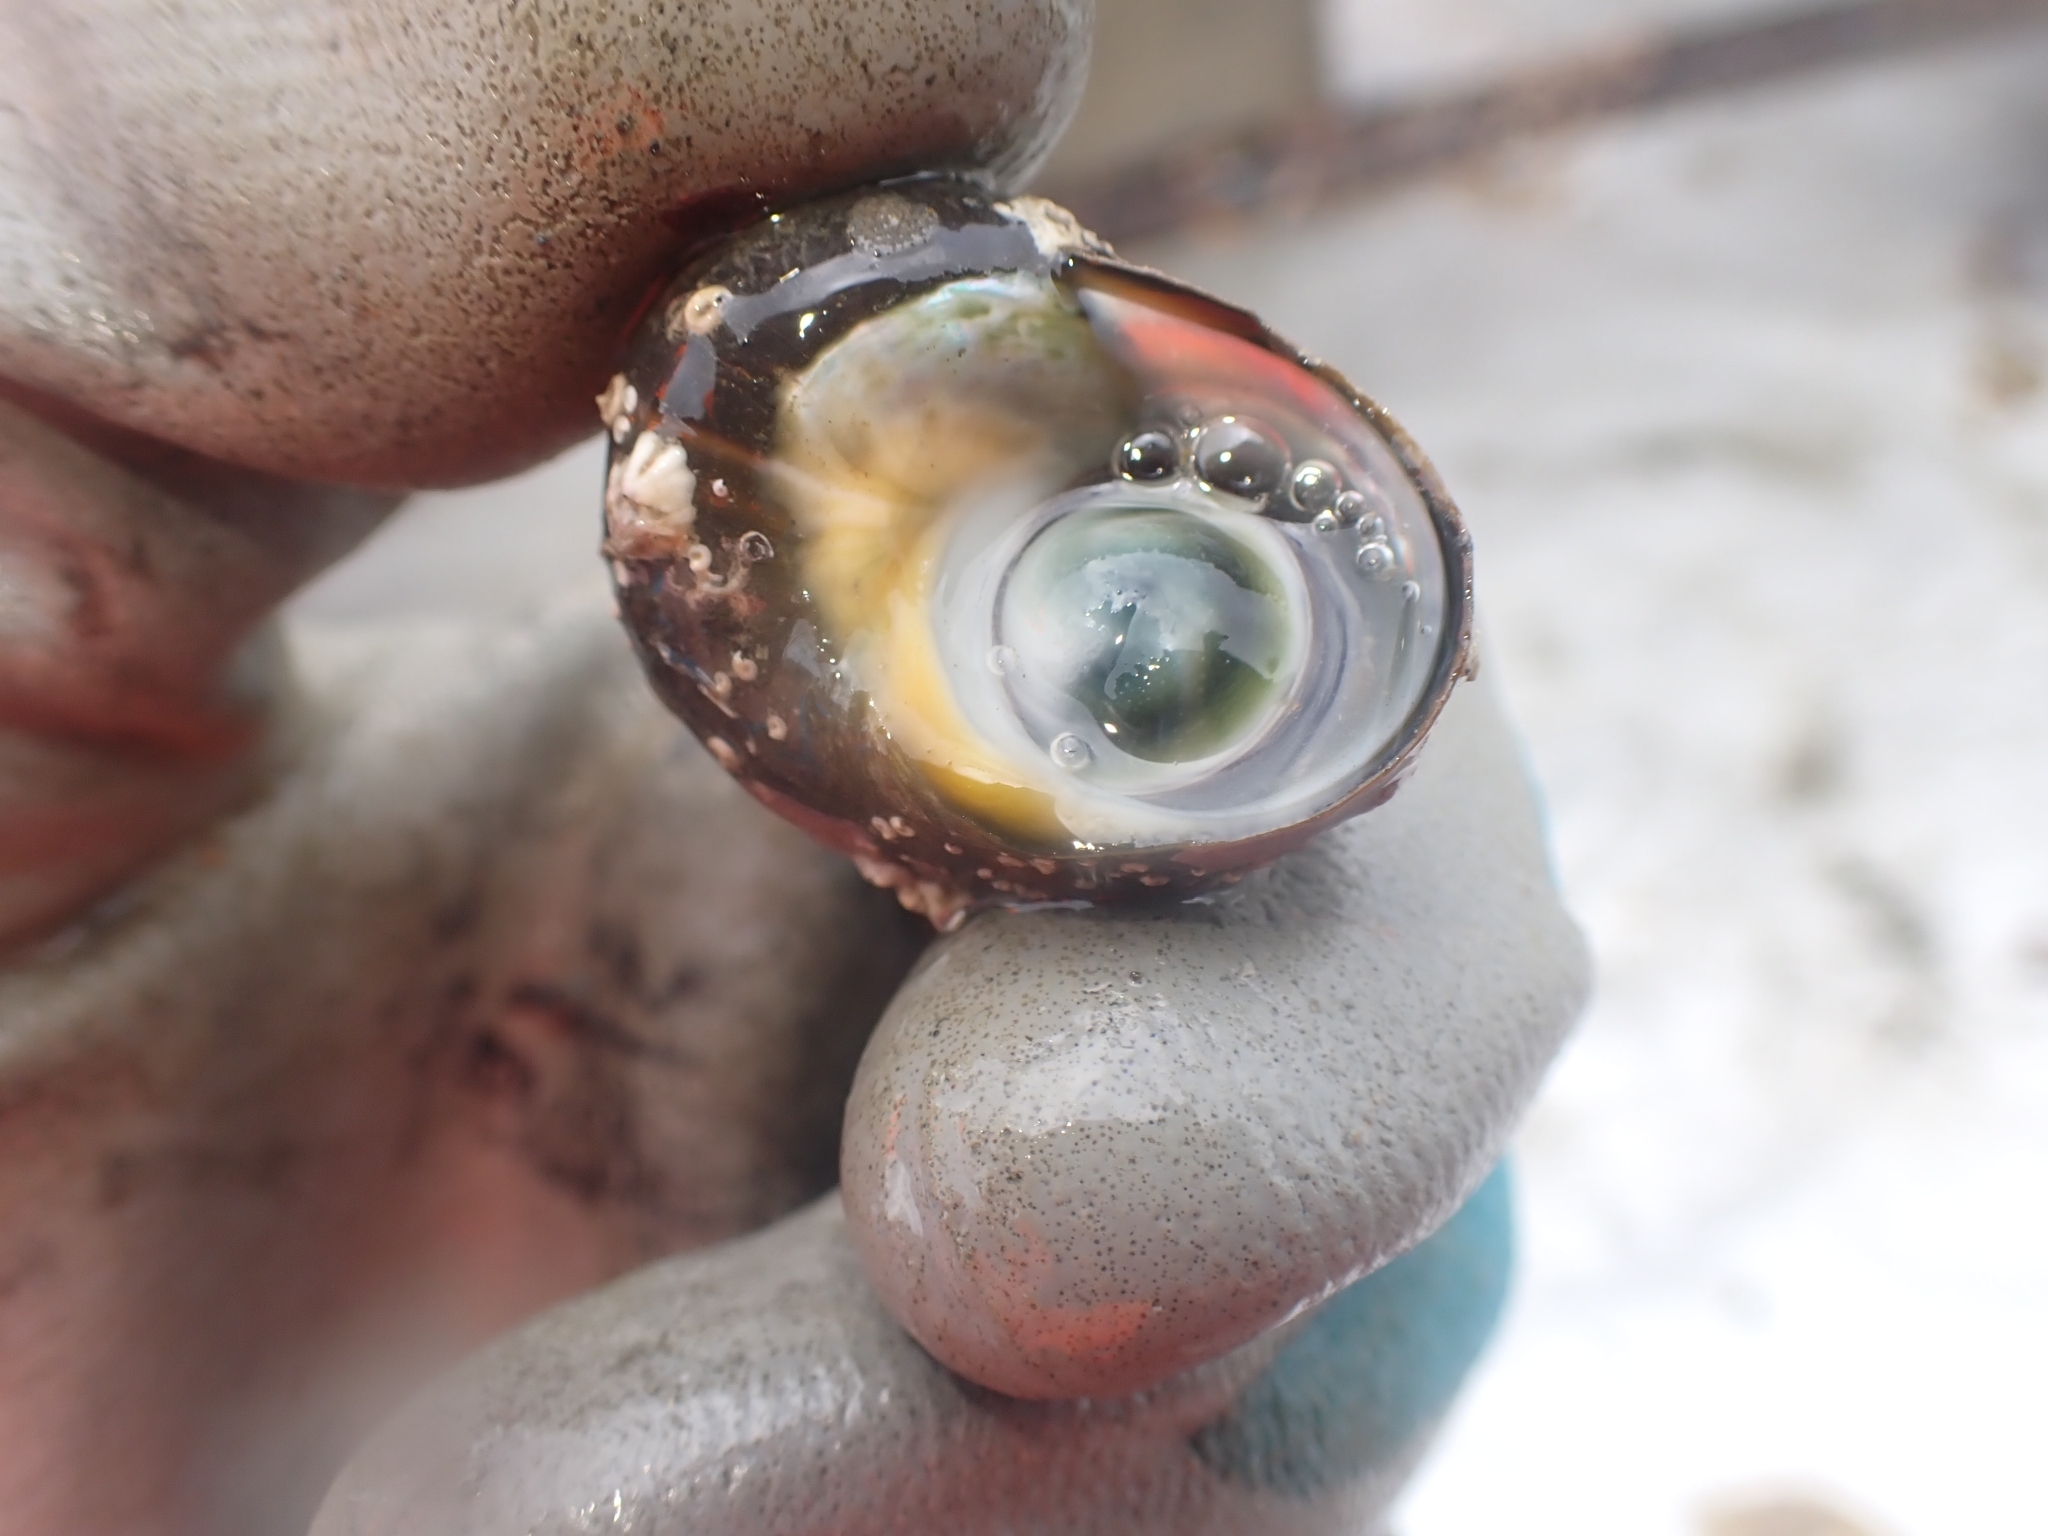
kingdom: Animalia
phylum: Mollusca
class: Gastropoda
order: Trochida
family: Turbinidae
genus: Lunella
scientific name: Lunella smaragda
